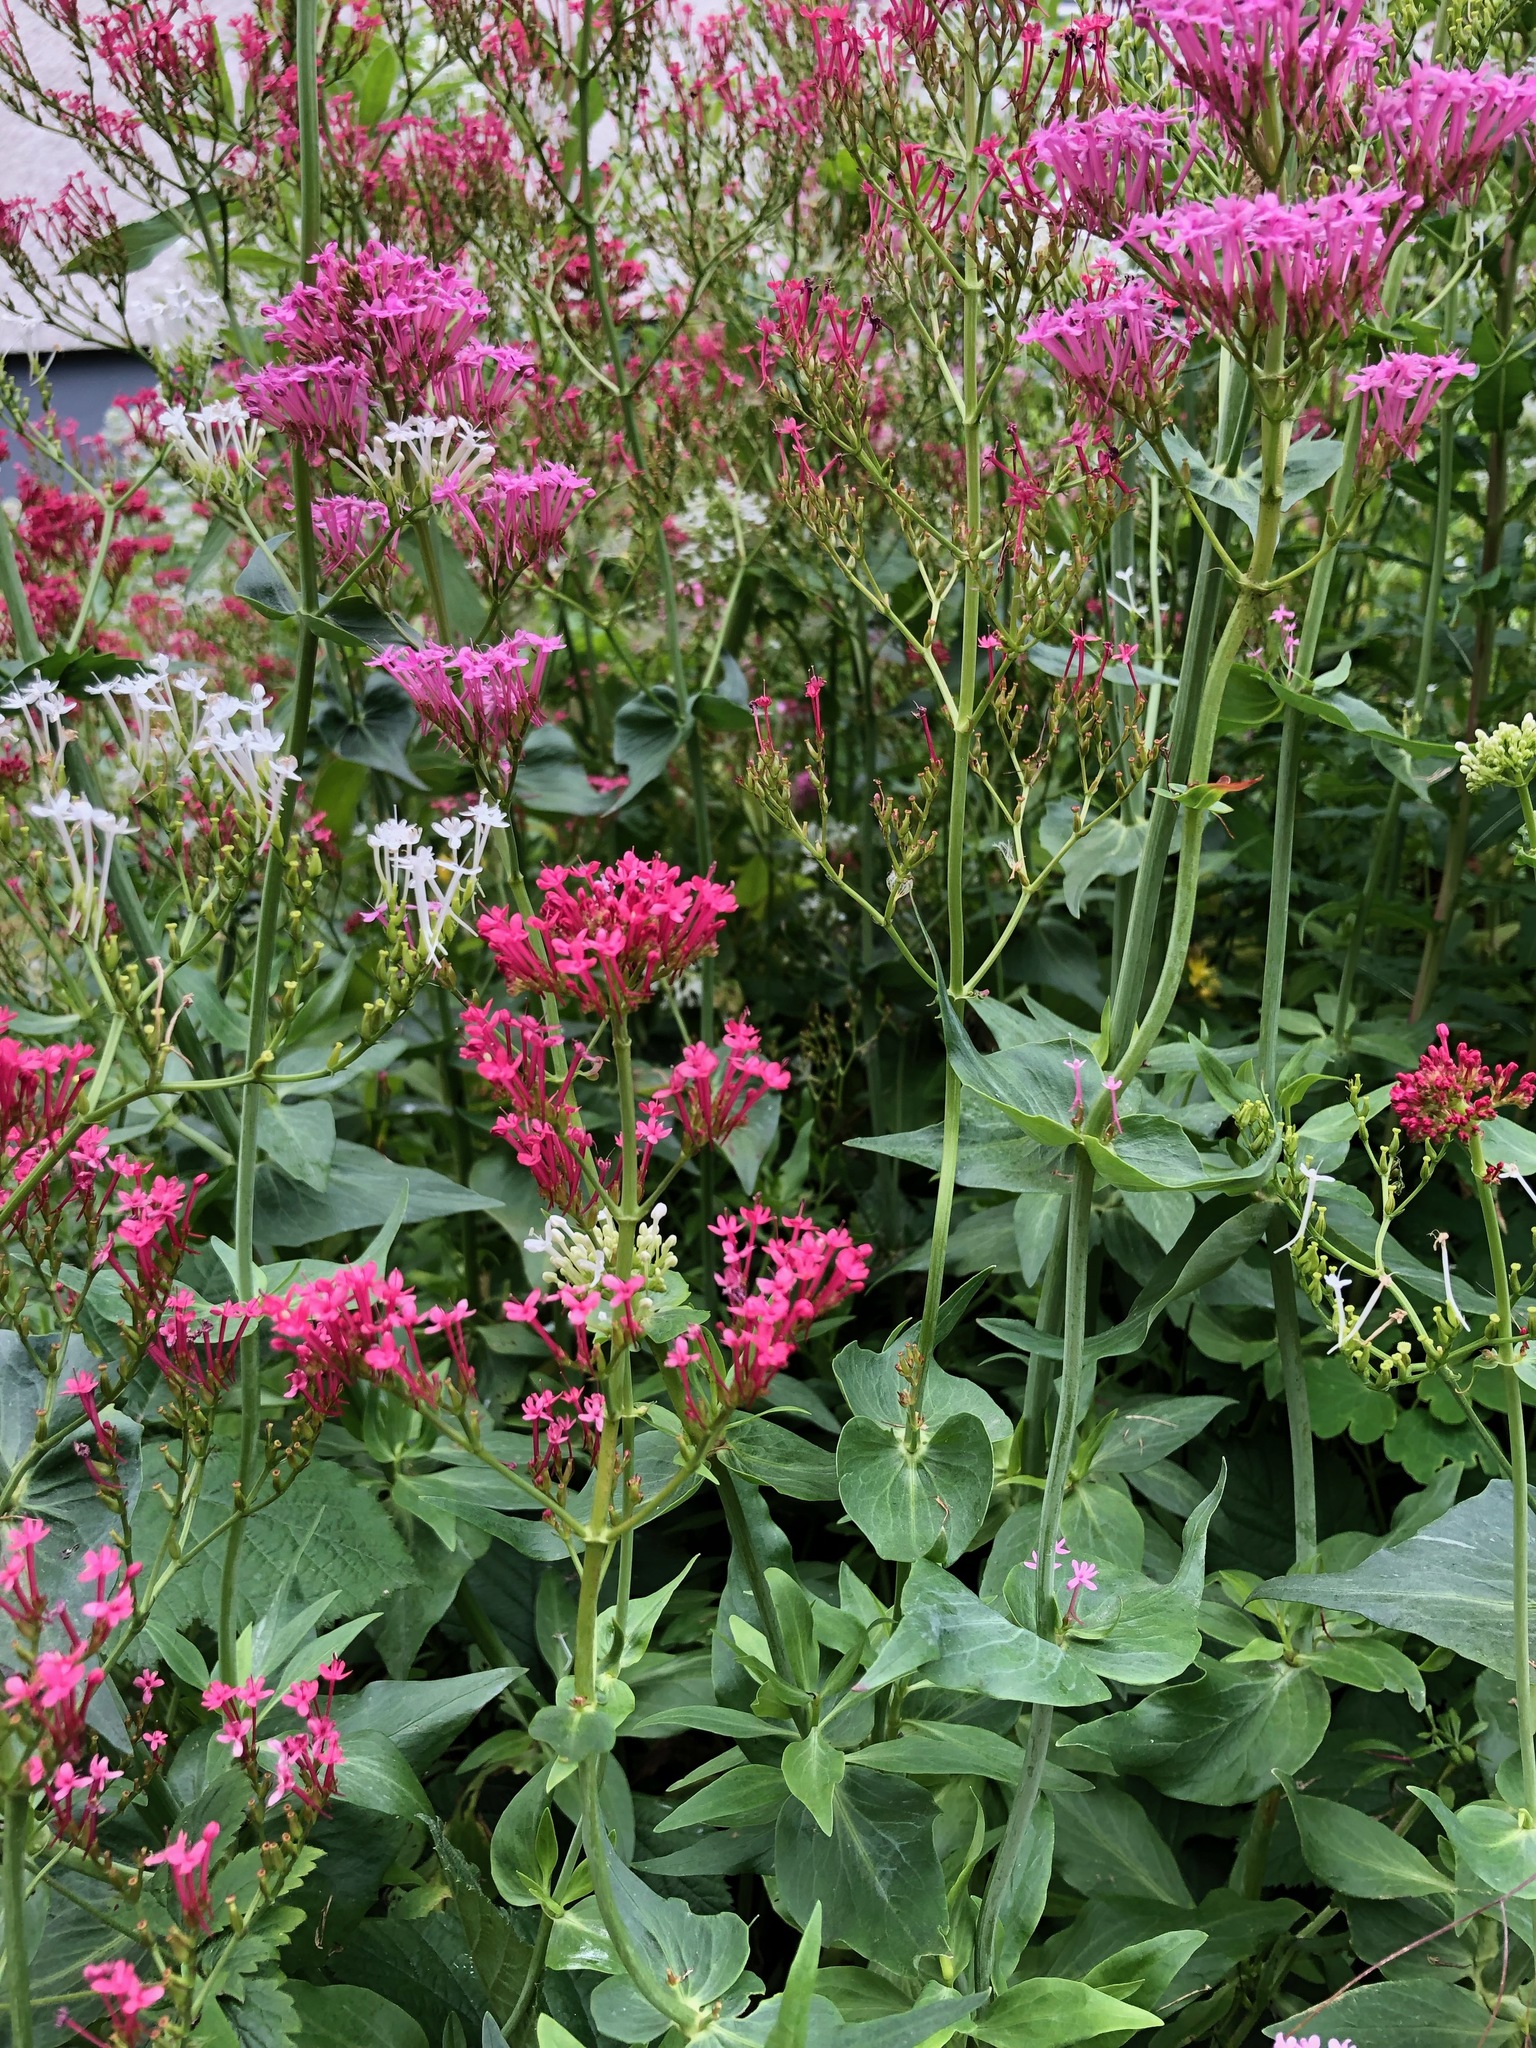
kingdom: Plantae
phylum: Tracheophyta
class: Magnoliopsida
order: Dipsacales
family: Caprifoliaceae
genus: Centranthus
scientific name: Centranthus ruber
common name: Red valerian
